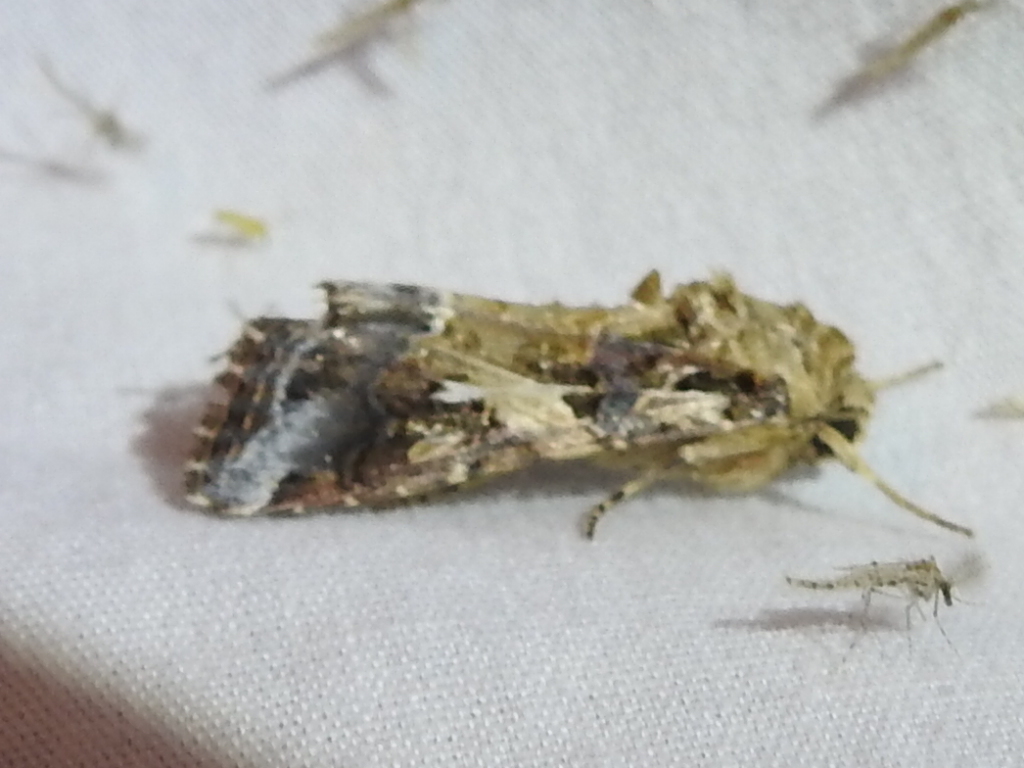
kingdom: Animalia
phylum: Arthropoda
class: Insecta
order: Lepidoptera
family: Noctuidae
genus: Spodoptera
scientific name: Spodoptera ornithogalli
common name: Yellow-striped armyworm
